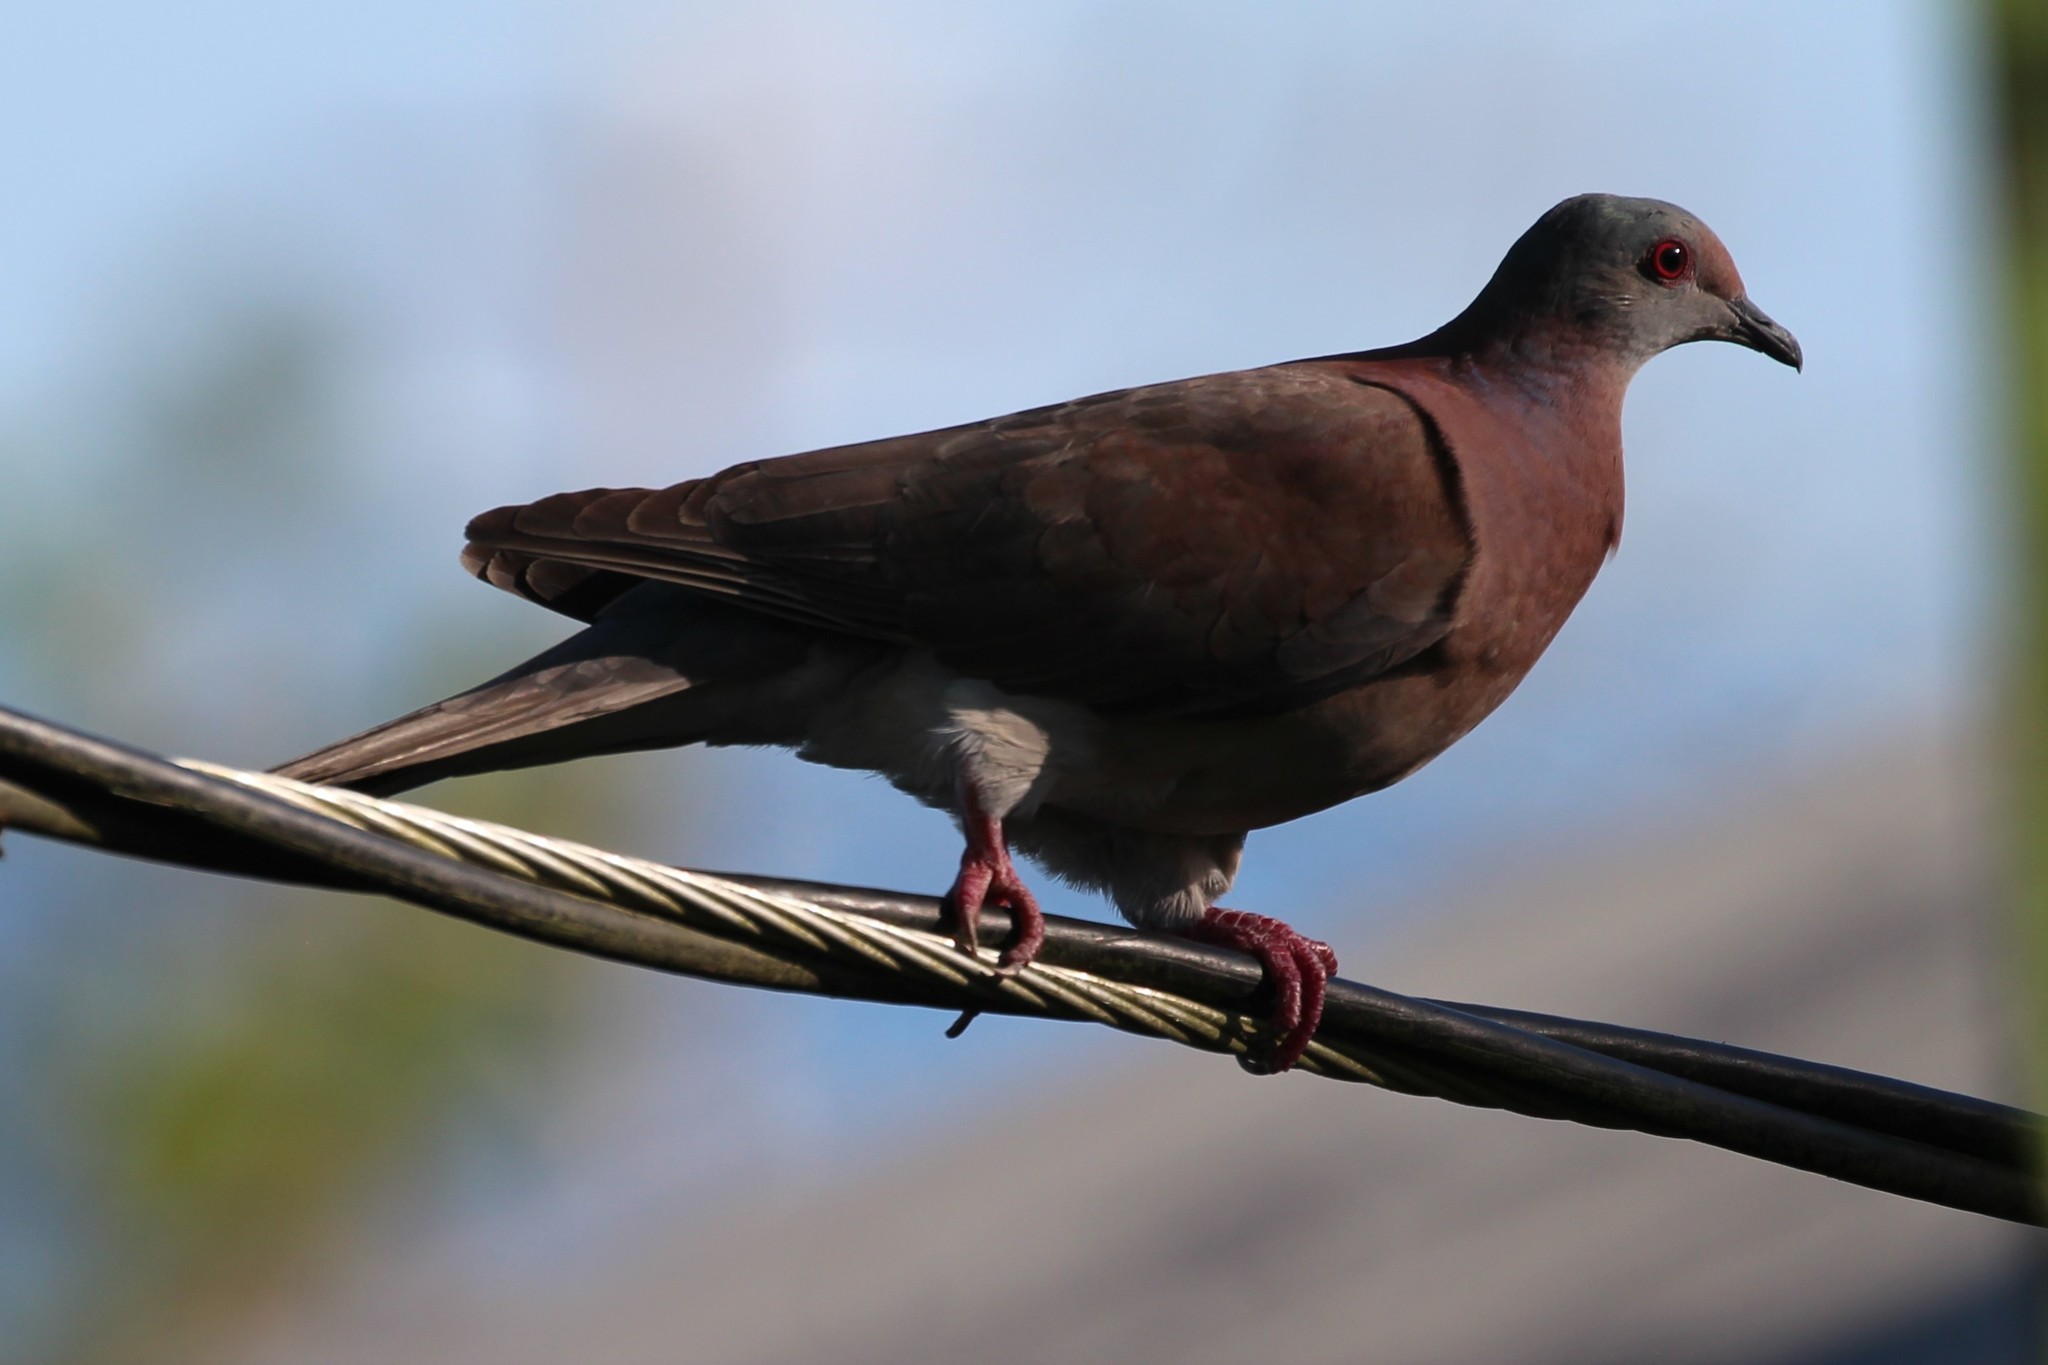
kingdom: Animalia
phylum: Chordata
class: Aves
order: Columbiformes
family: Columbidae
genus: Patagioenas
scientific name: Patagioenas cayennensis
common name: Pale-vented pigeon
